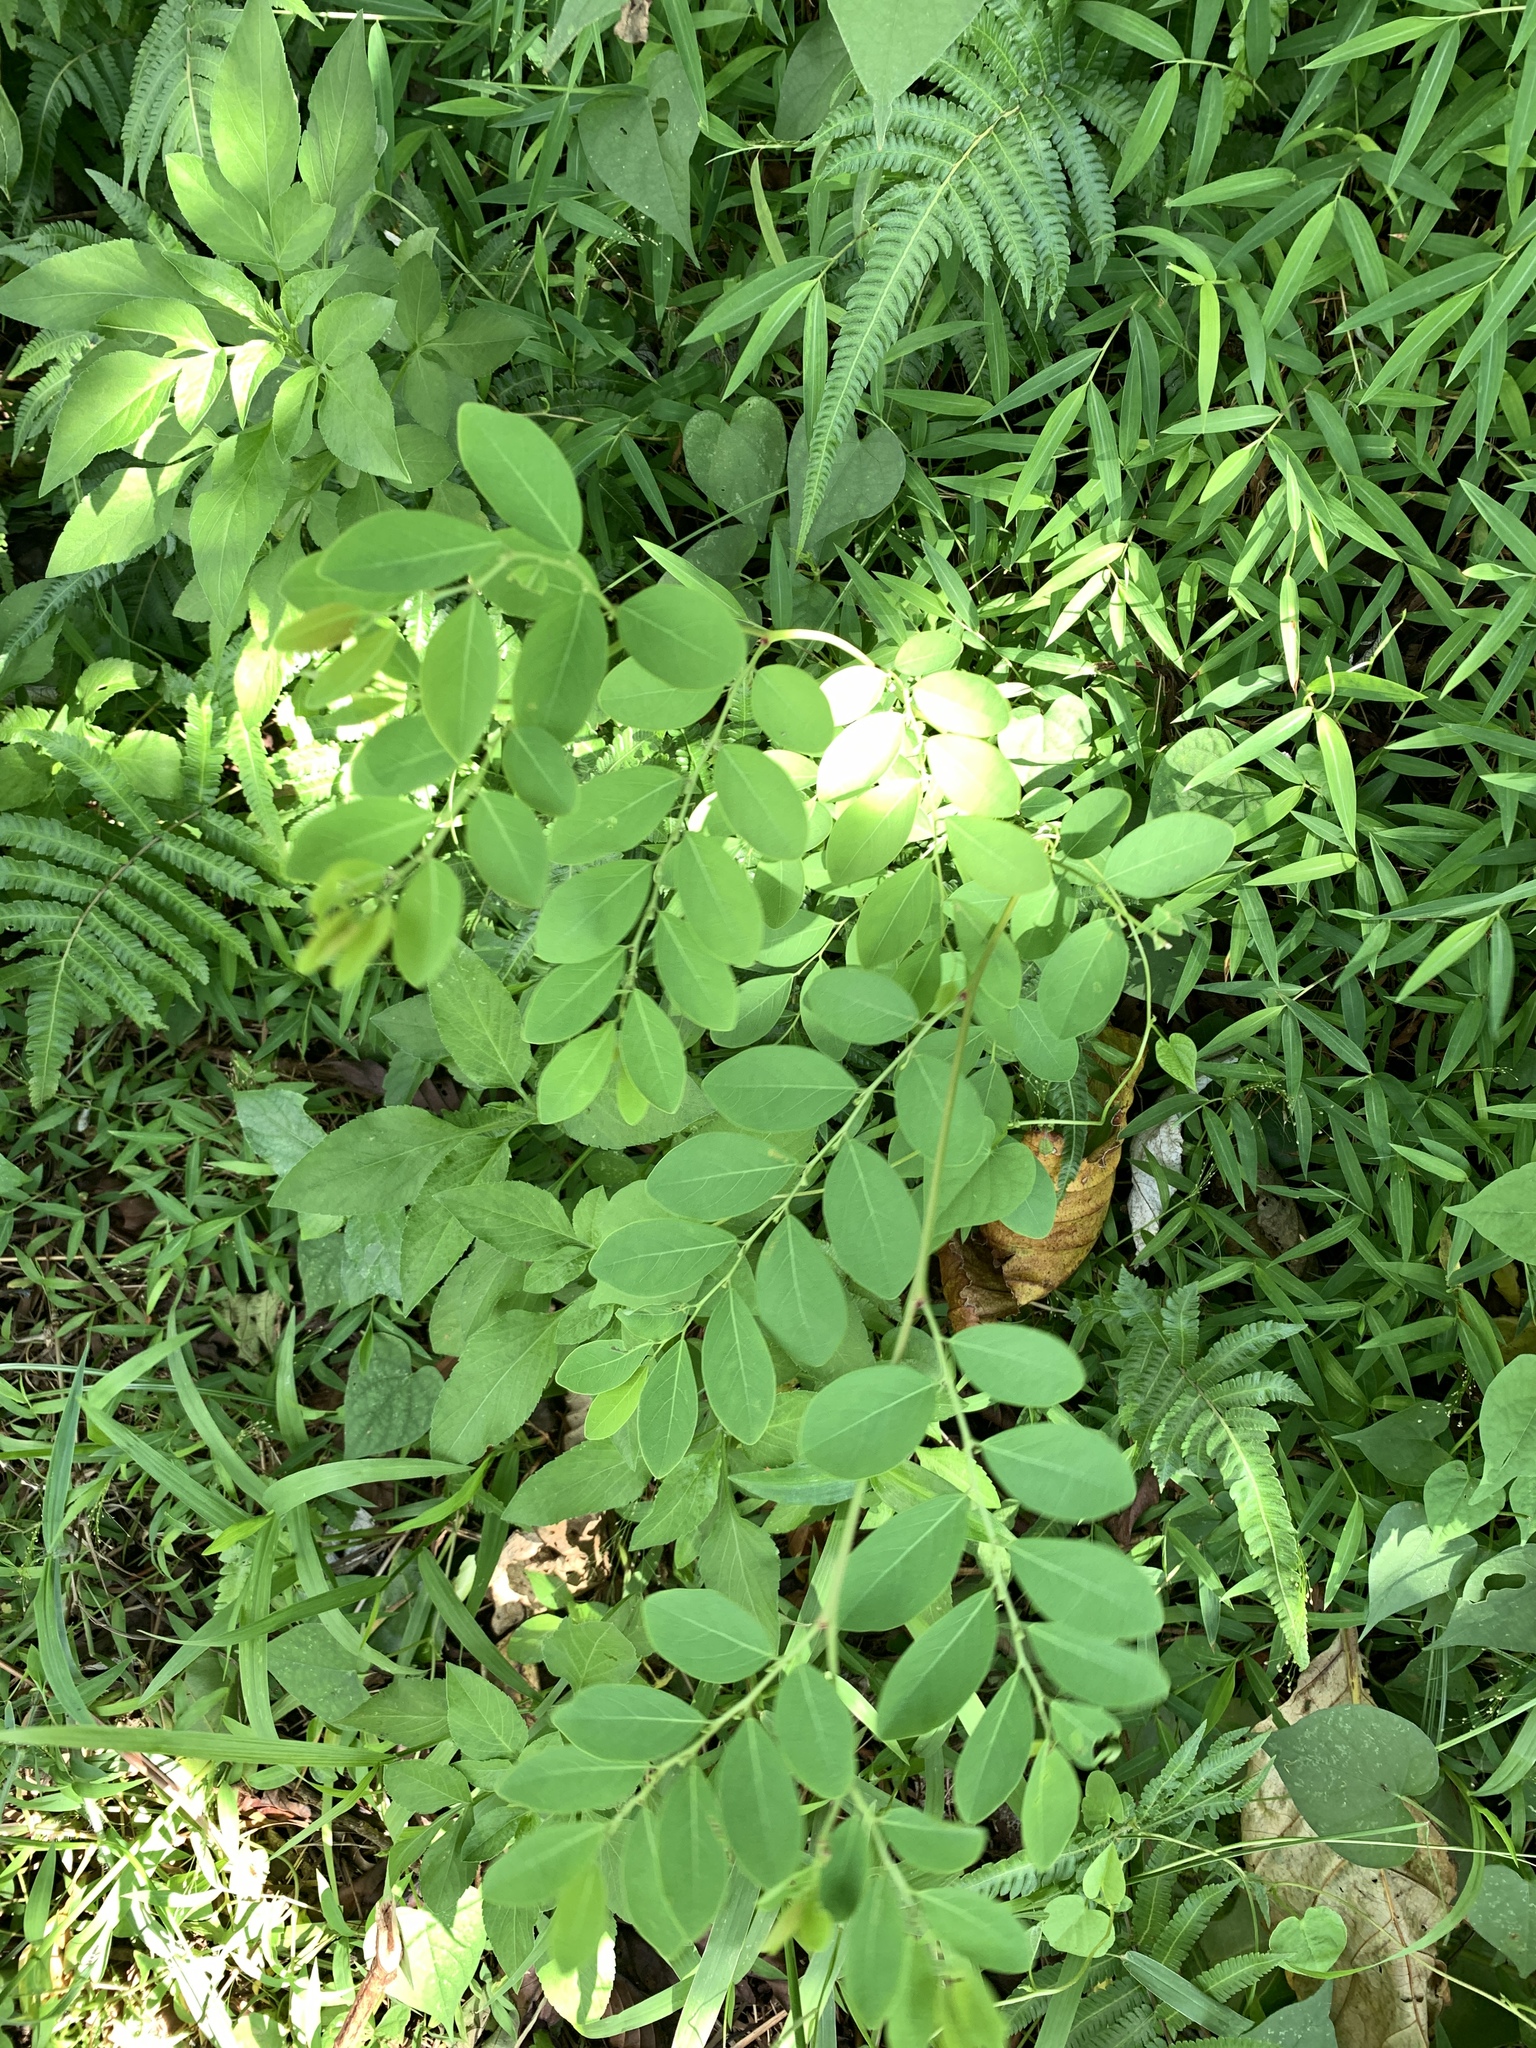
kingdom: Plantae
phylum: Tracheophyta
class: Magnoliopsida
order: Malpighiales
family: Phyllanthaceae
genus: Breynia
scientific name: Breynia vitis-idaea
